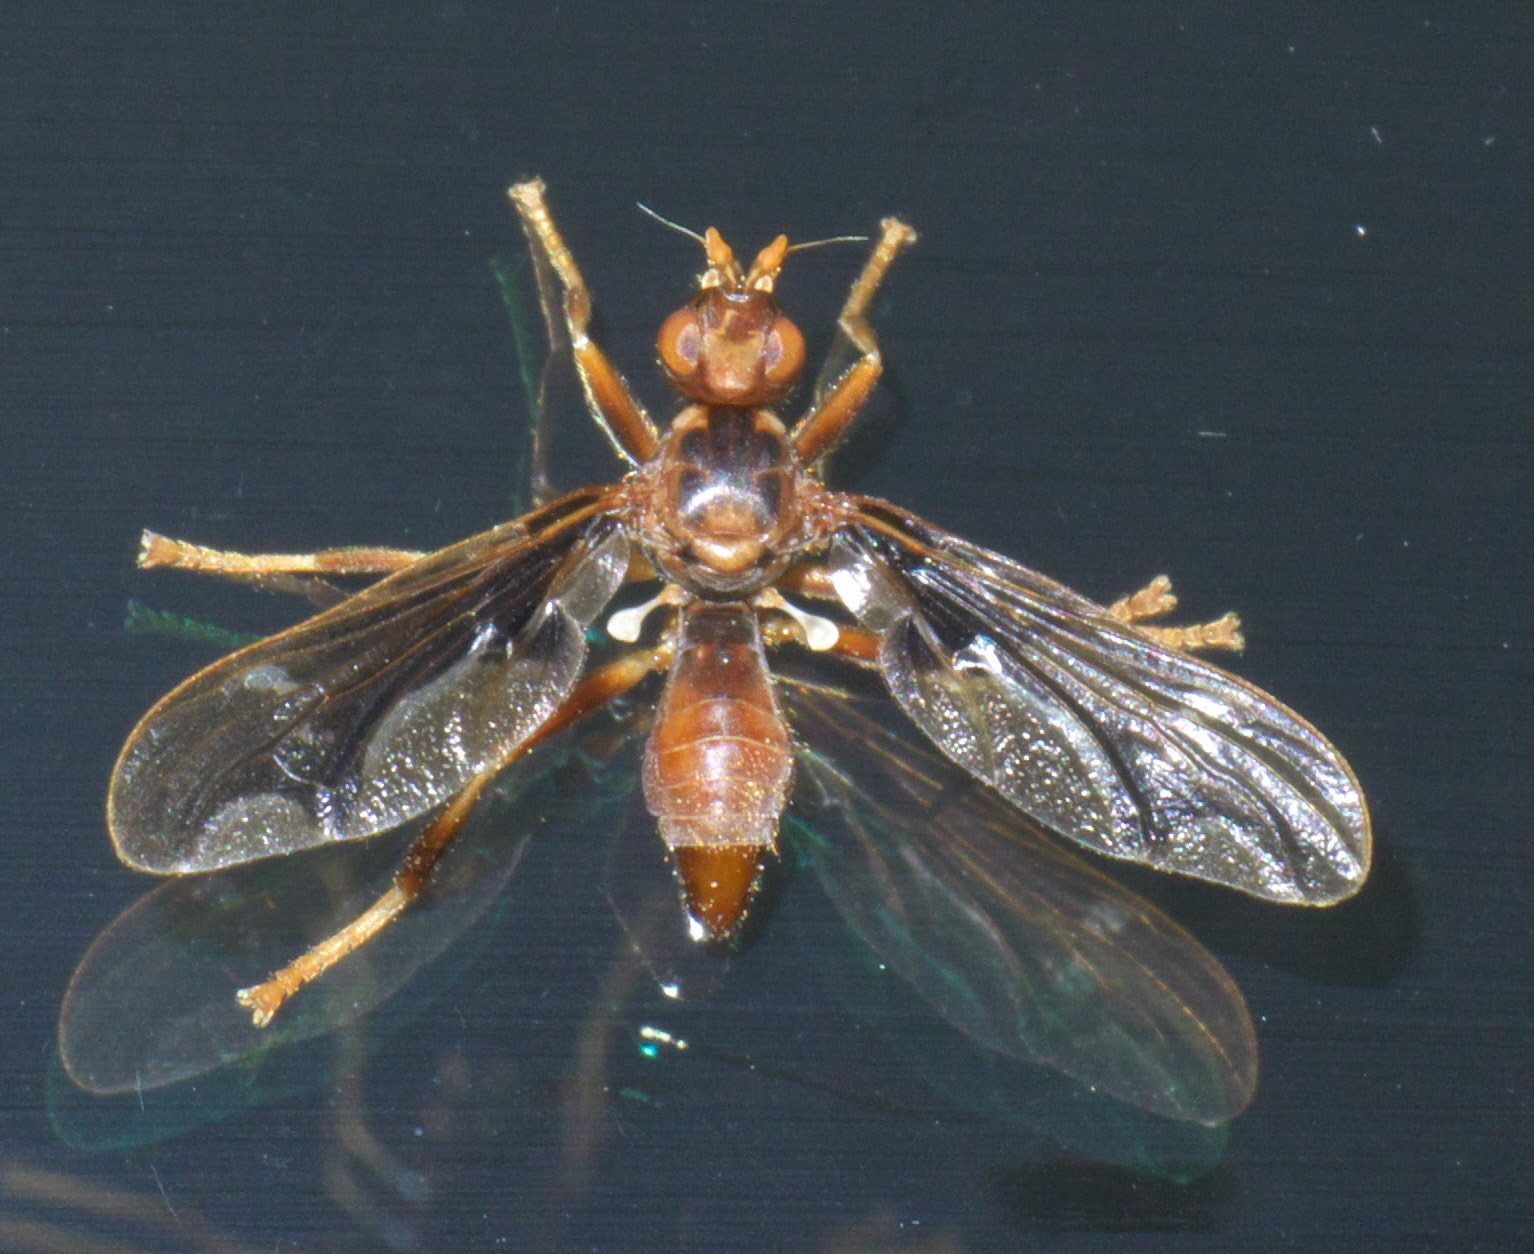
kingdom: Animalia
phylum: Arthropoda
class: Insecta
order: Diptera
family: Pyrgotidae
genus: Pyrgota
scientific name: Pyrgota undata
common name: Waved light fly
